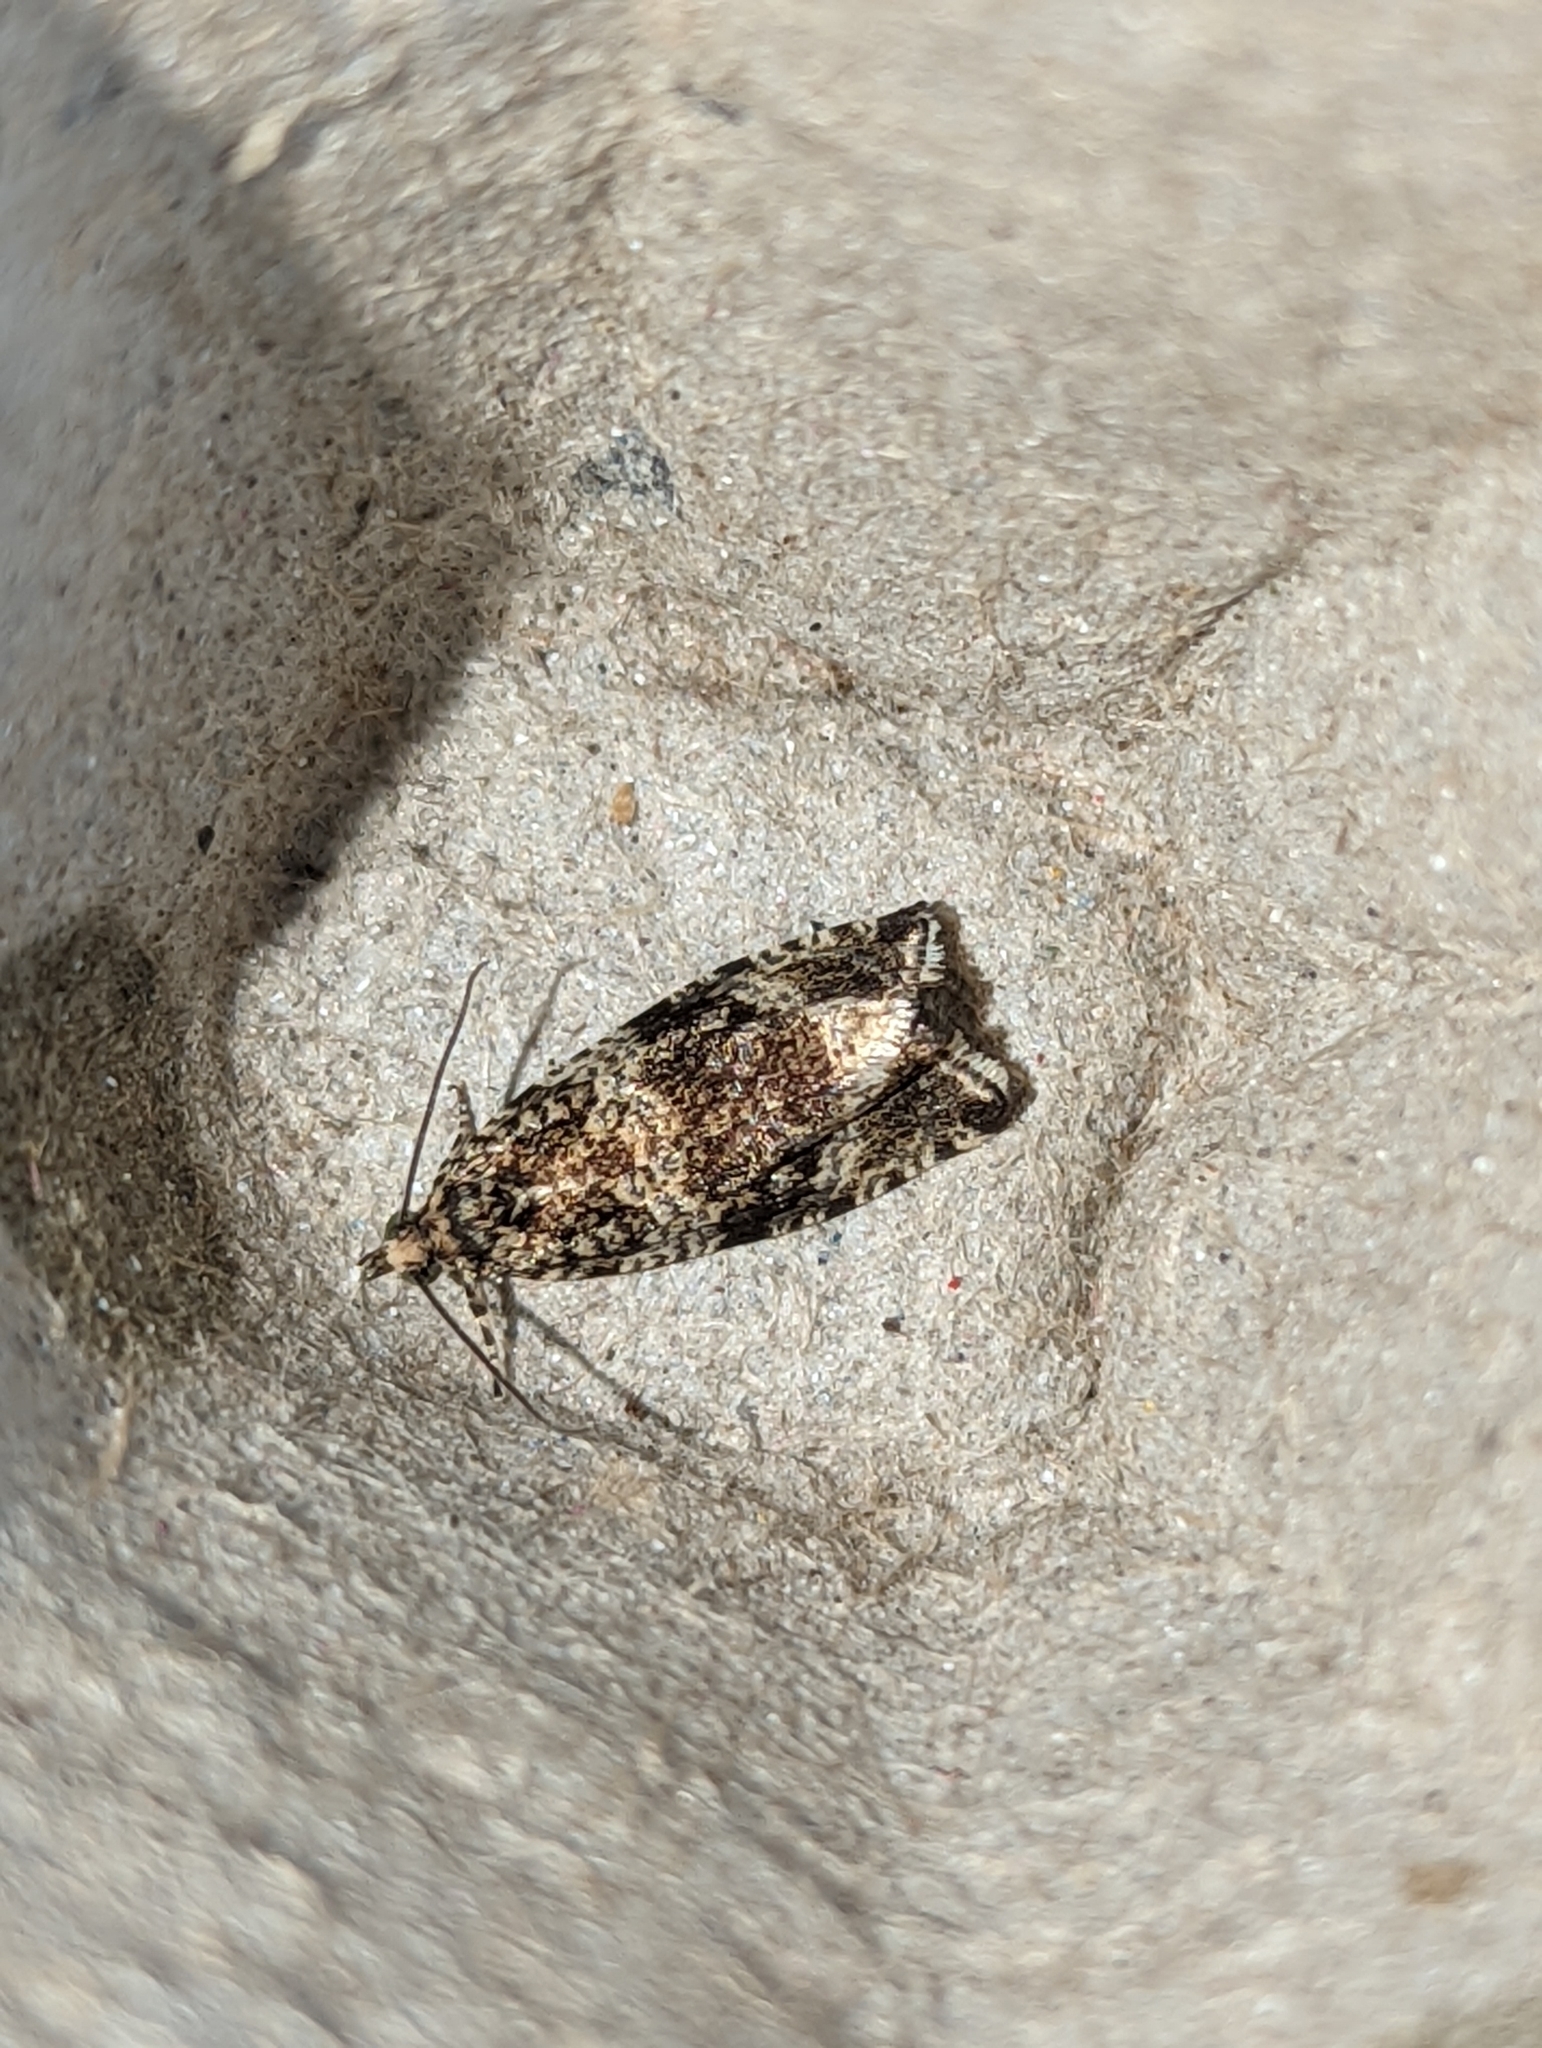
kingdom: Animalia
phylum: Arthropoda
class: Insecta
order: Lepidoptera
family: Tortricidae
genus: Syricoris
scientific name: Syricoris lacunana
